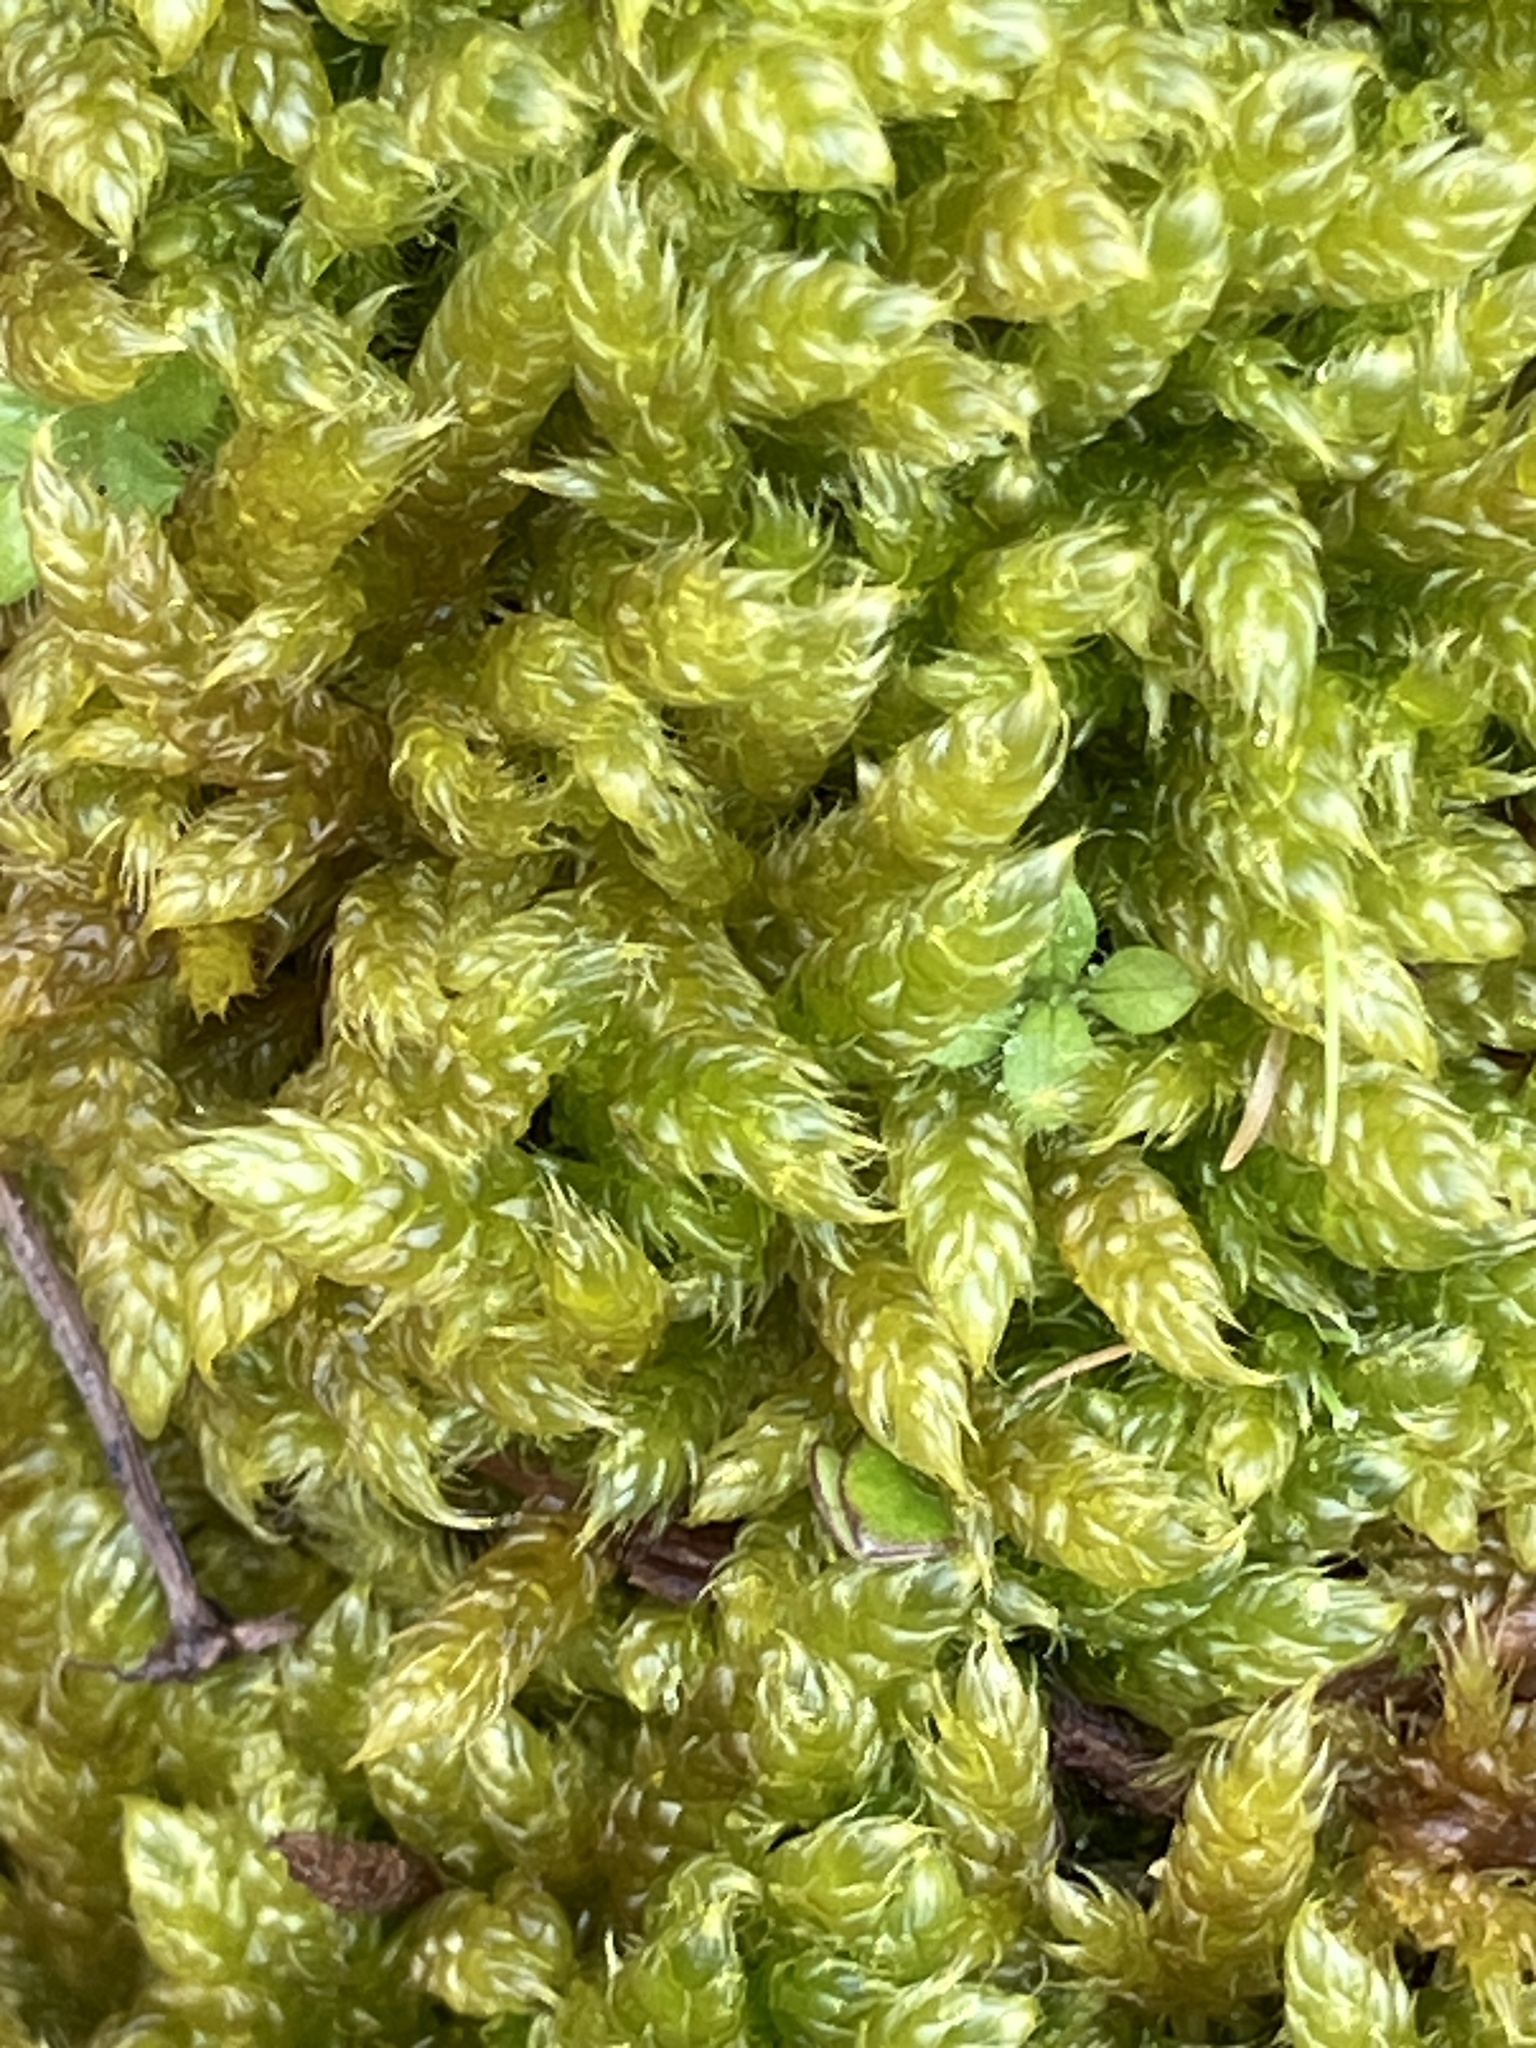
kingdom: Plantae
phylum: Bryophyta
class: Bryopsida
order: Hypnales
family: Hypnaceae
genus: Hypnum
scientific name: Hypnum cupressiforme
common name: Cypress-leaved plait-moss
